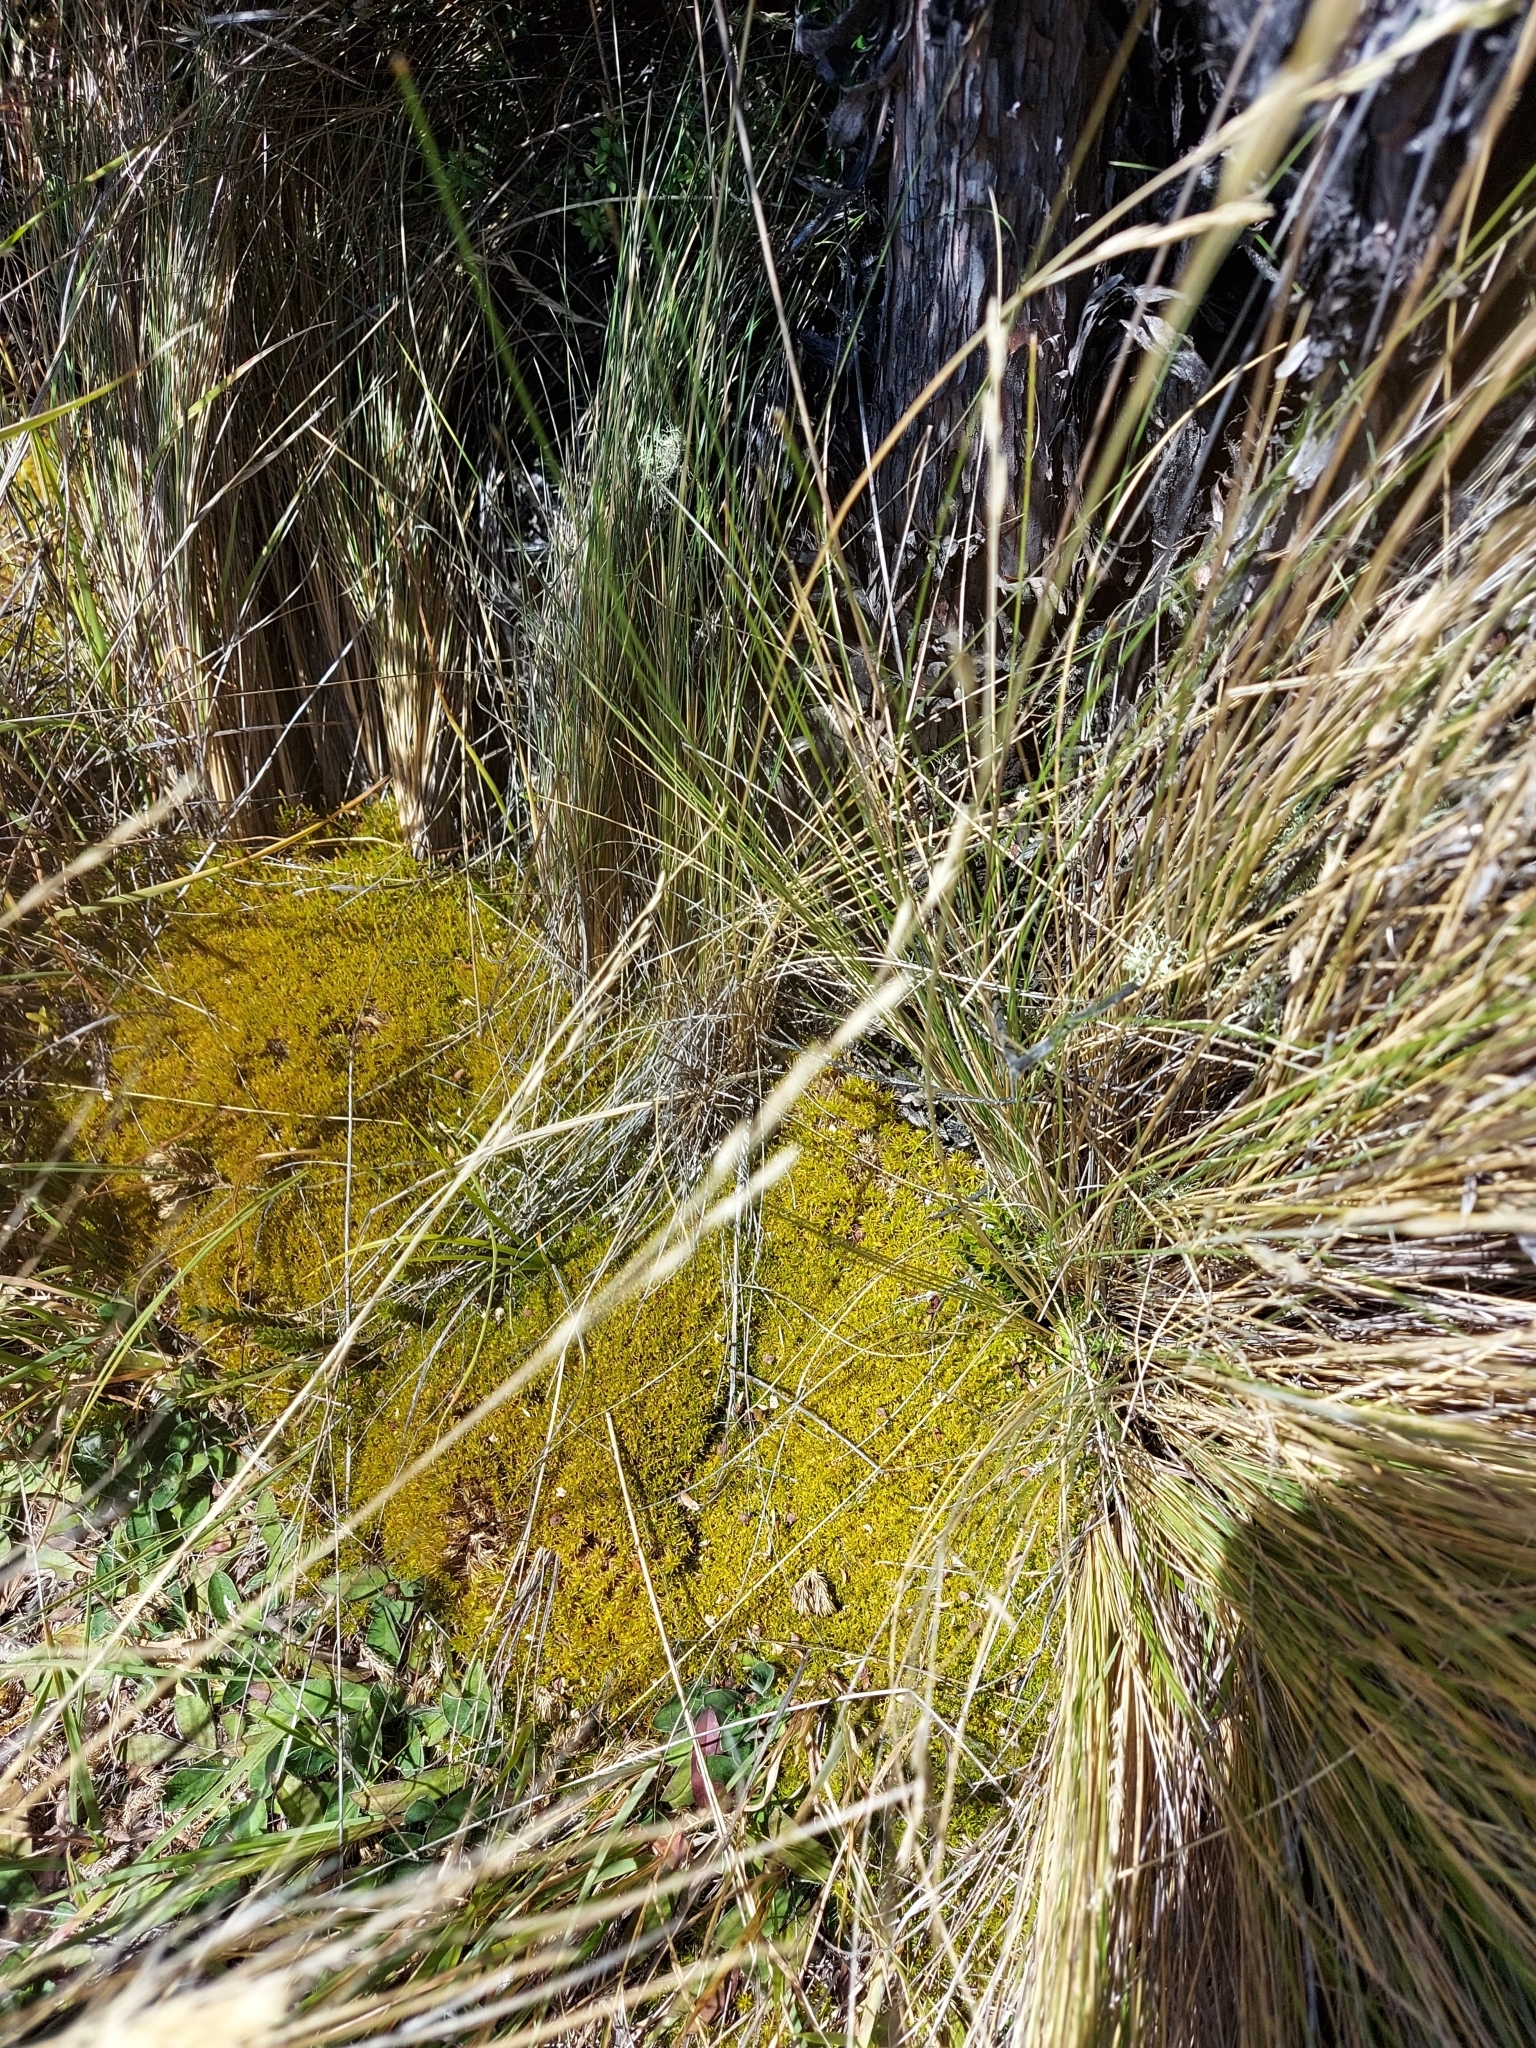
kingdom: Plantae
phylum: Tracheophyta
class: Magnoliopsida
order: Caryophyllales
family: Caryophyllaceae
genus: Scleranthus
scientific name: Scleranthus uniflorus
